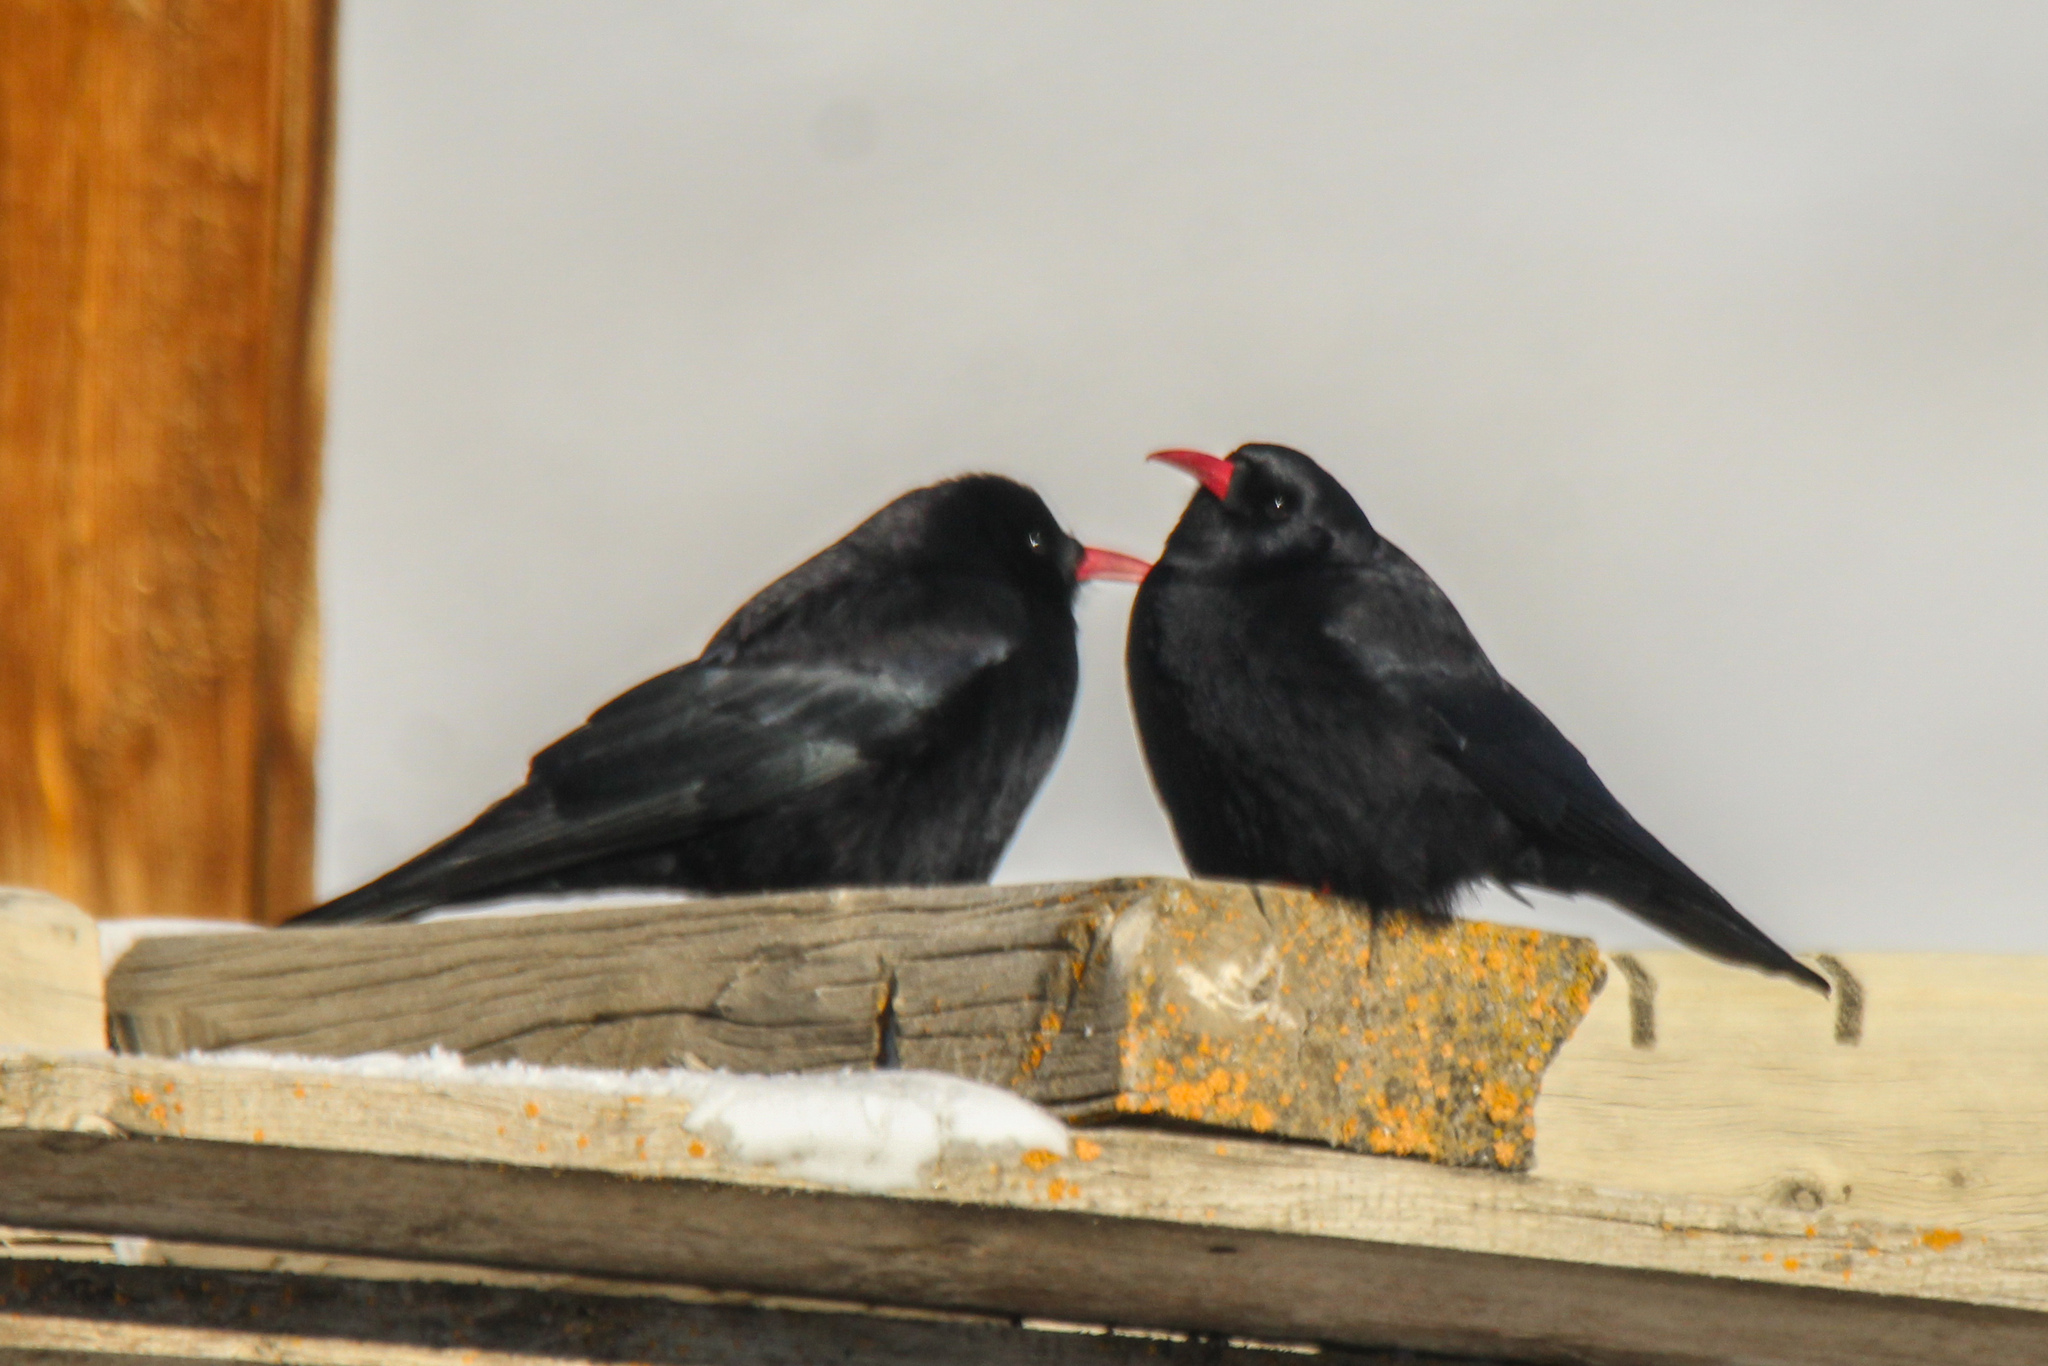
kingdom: Animalia
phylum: Chordata
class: Aves
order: Passeriformes
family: Corvidae
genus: Pyrrhocorax
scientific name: Pyrrhocorax pyrrhocorax
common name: Red-billed chough
